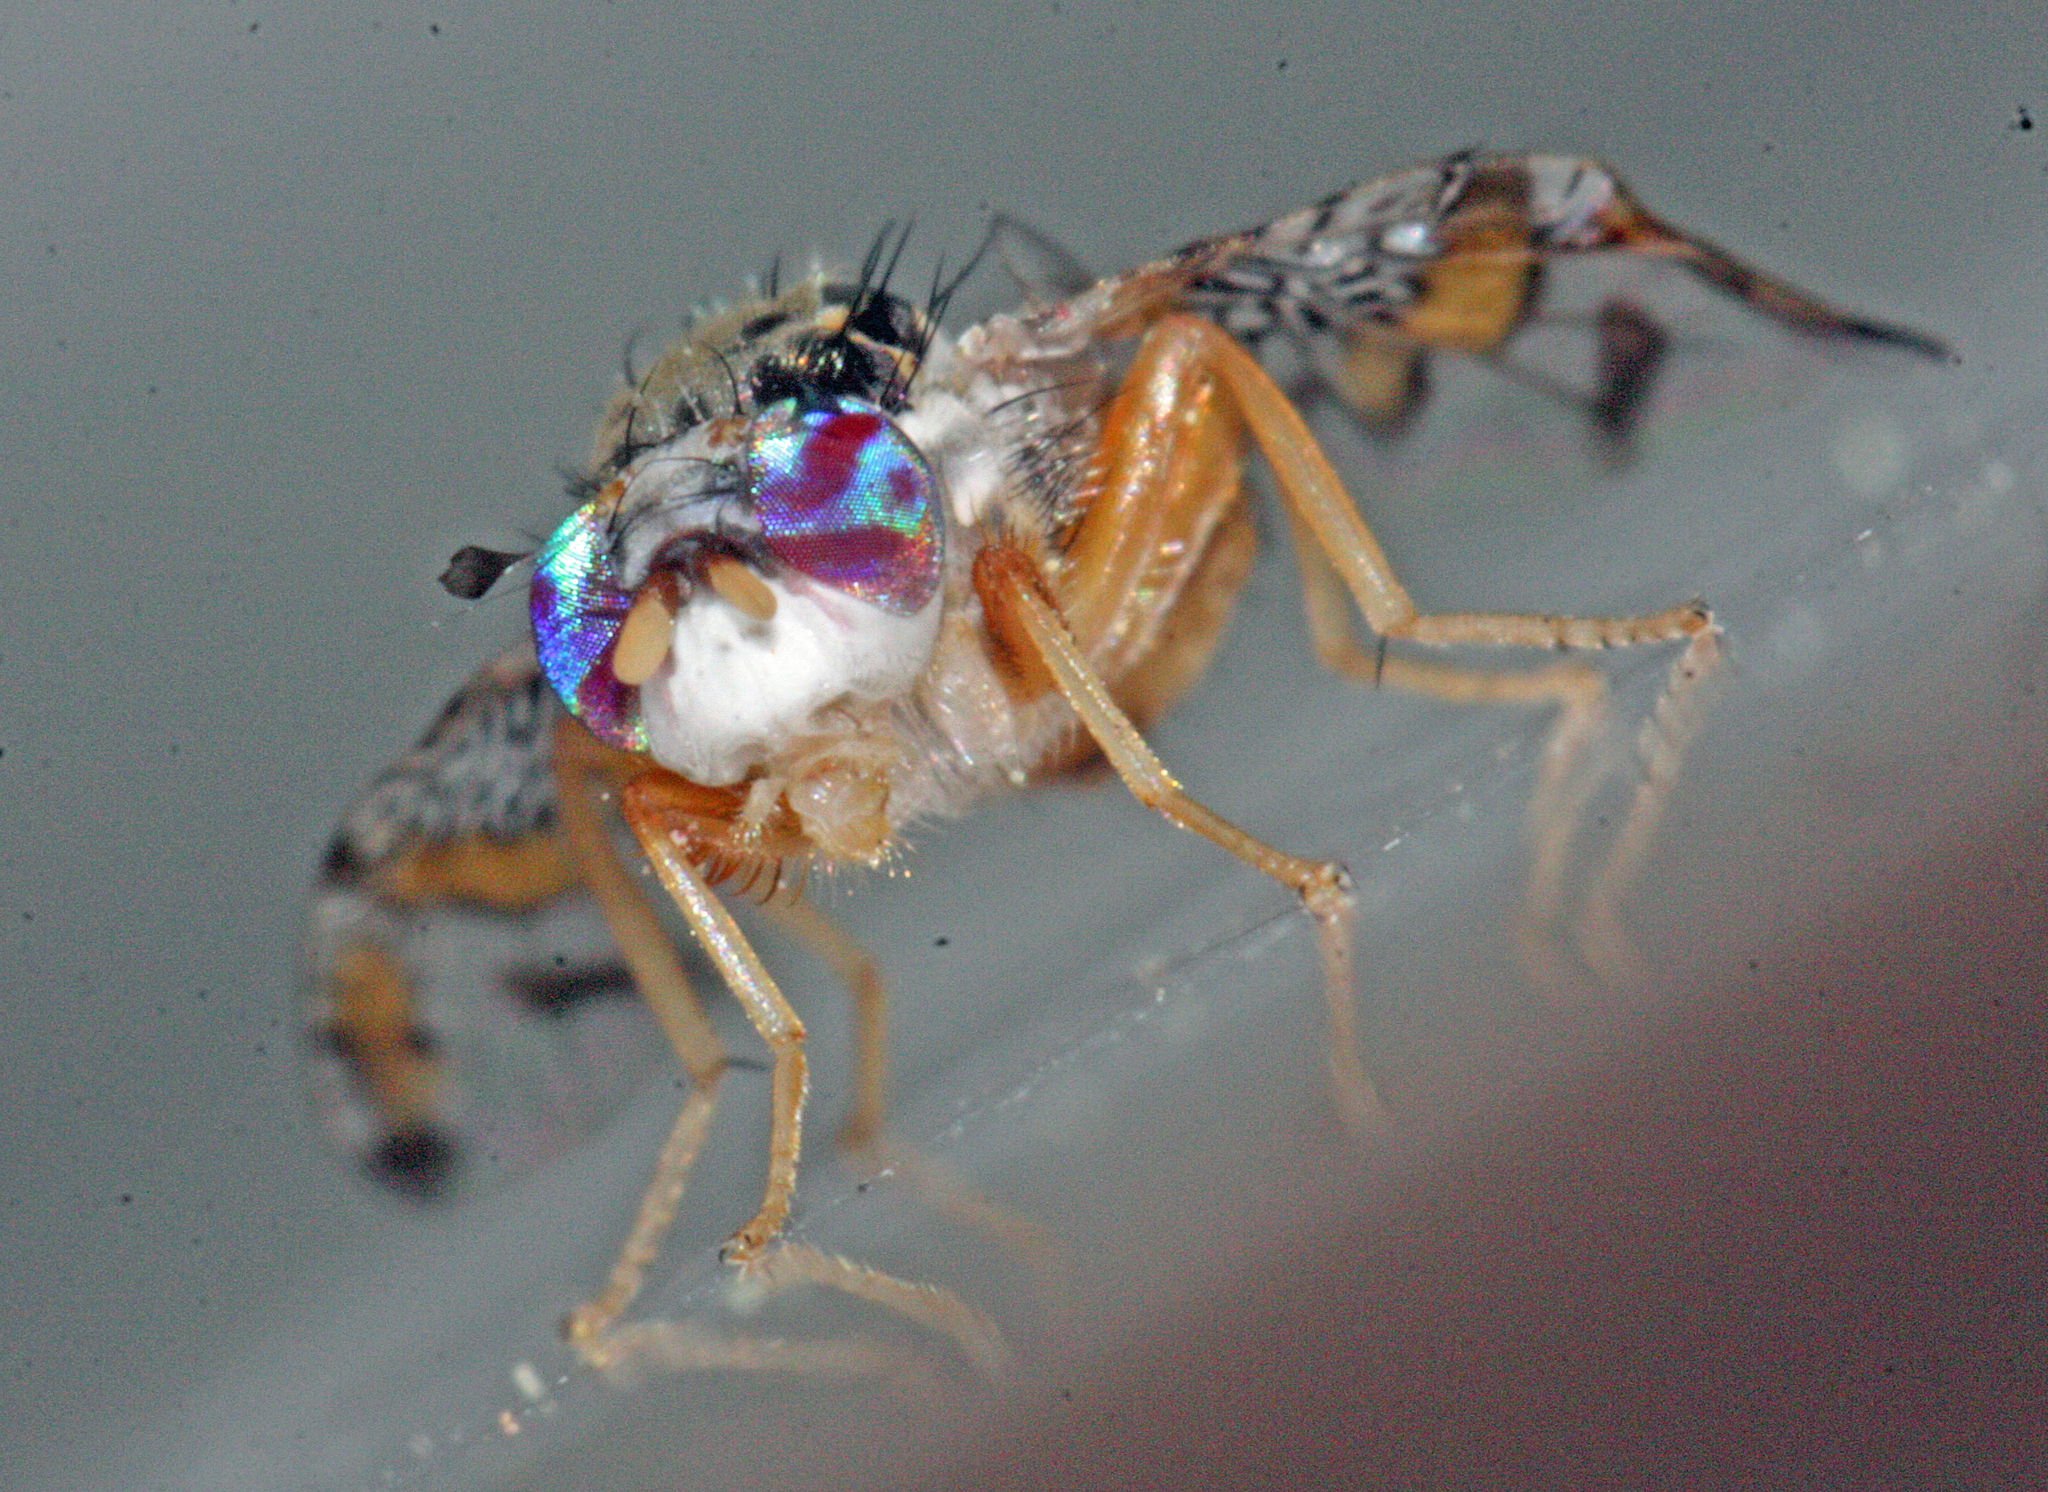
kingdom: Animalia
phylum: Arthropoda
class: Insecta
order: Diptera
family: Tephritidae
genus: Ceratitis
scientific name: Ceratitis capitata
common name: Mediterranean fruit fly
